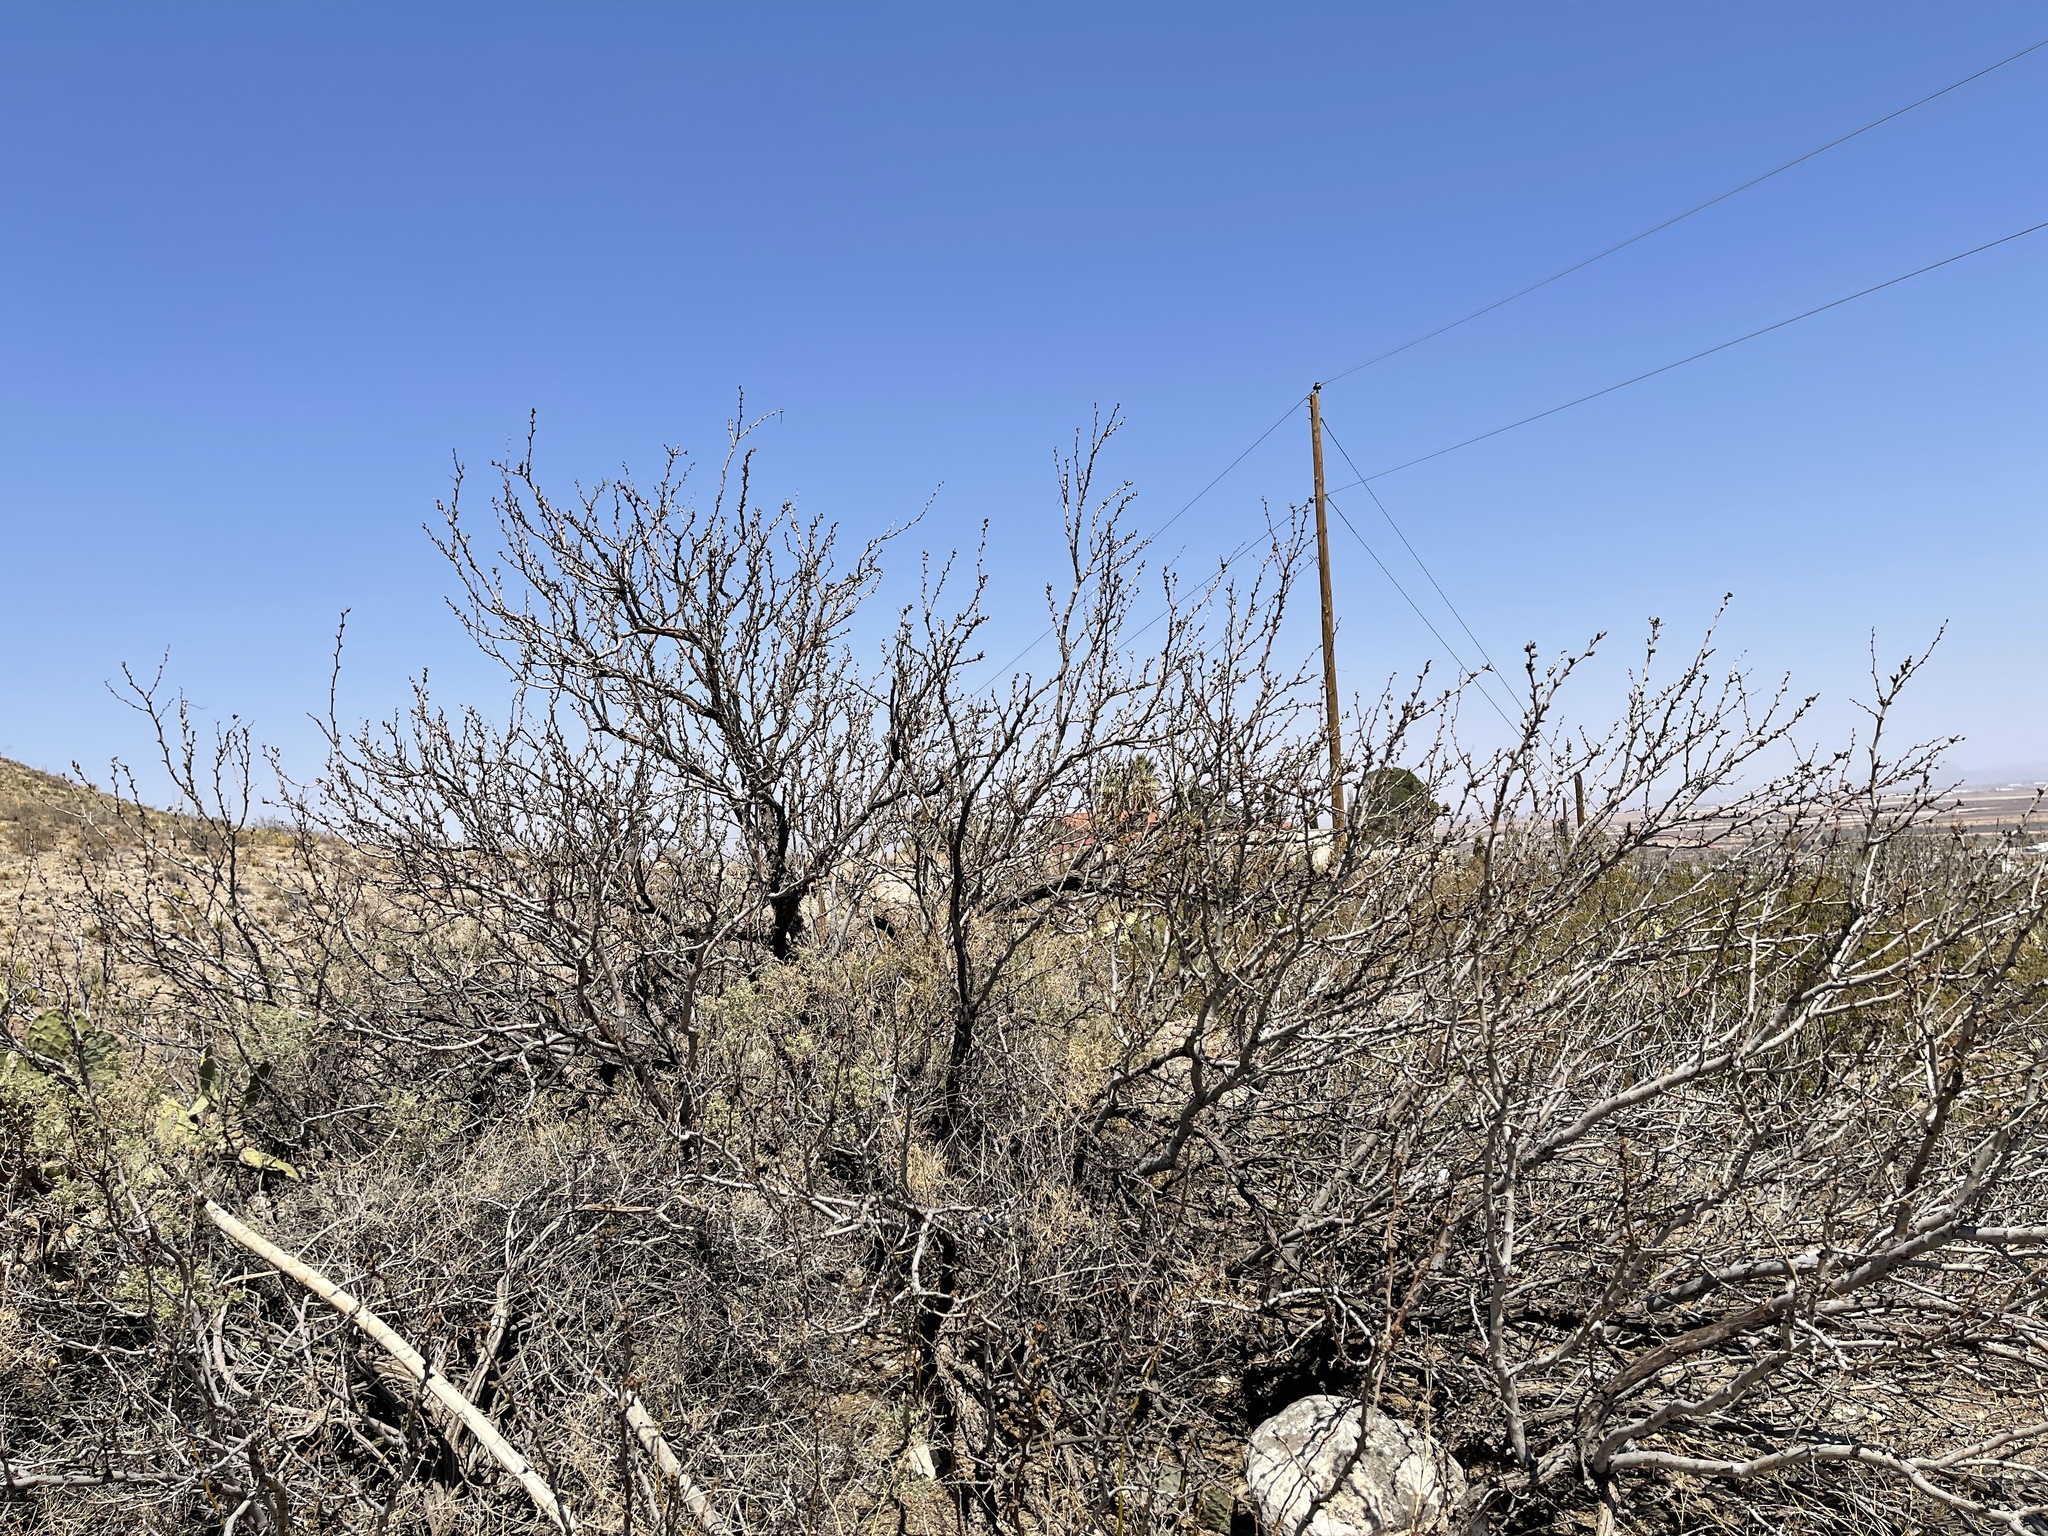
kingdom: Plantae
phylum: Tracheophyta
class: Magnoliopsida
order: Fabales
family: Fabaceae
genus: Prosopis
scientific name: Prosopis glandulosa
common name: Honey mesquite
